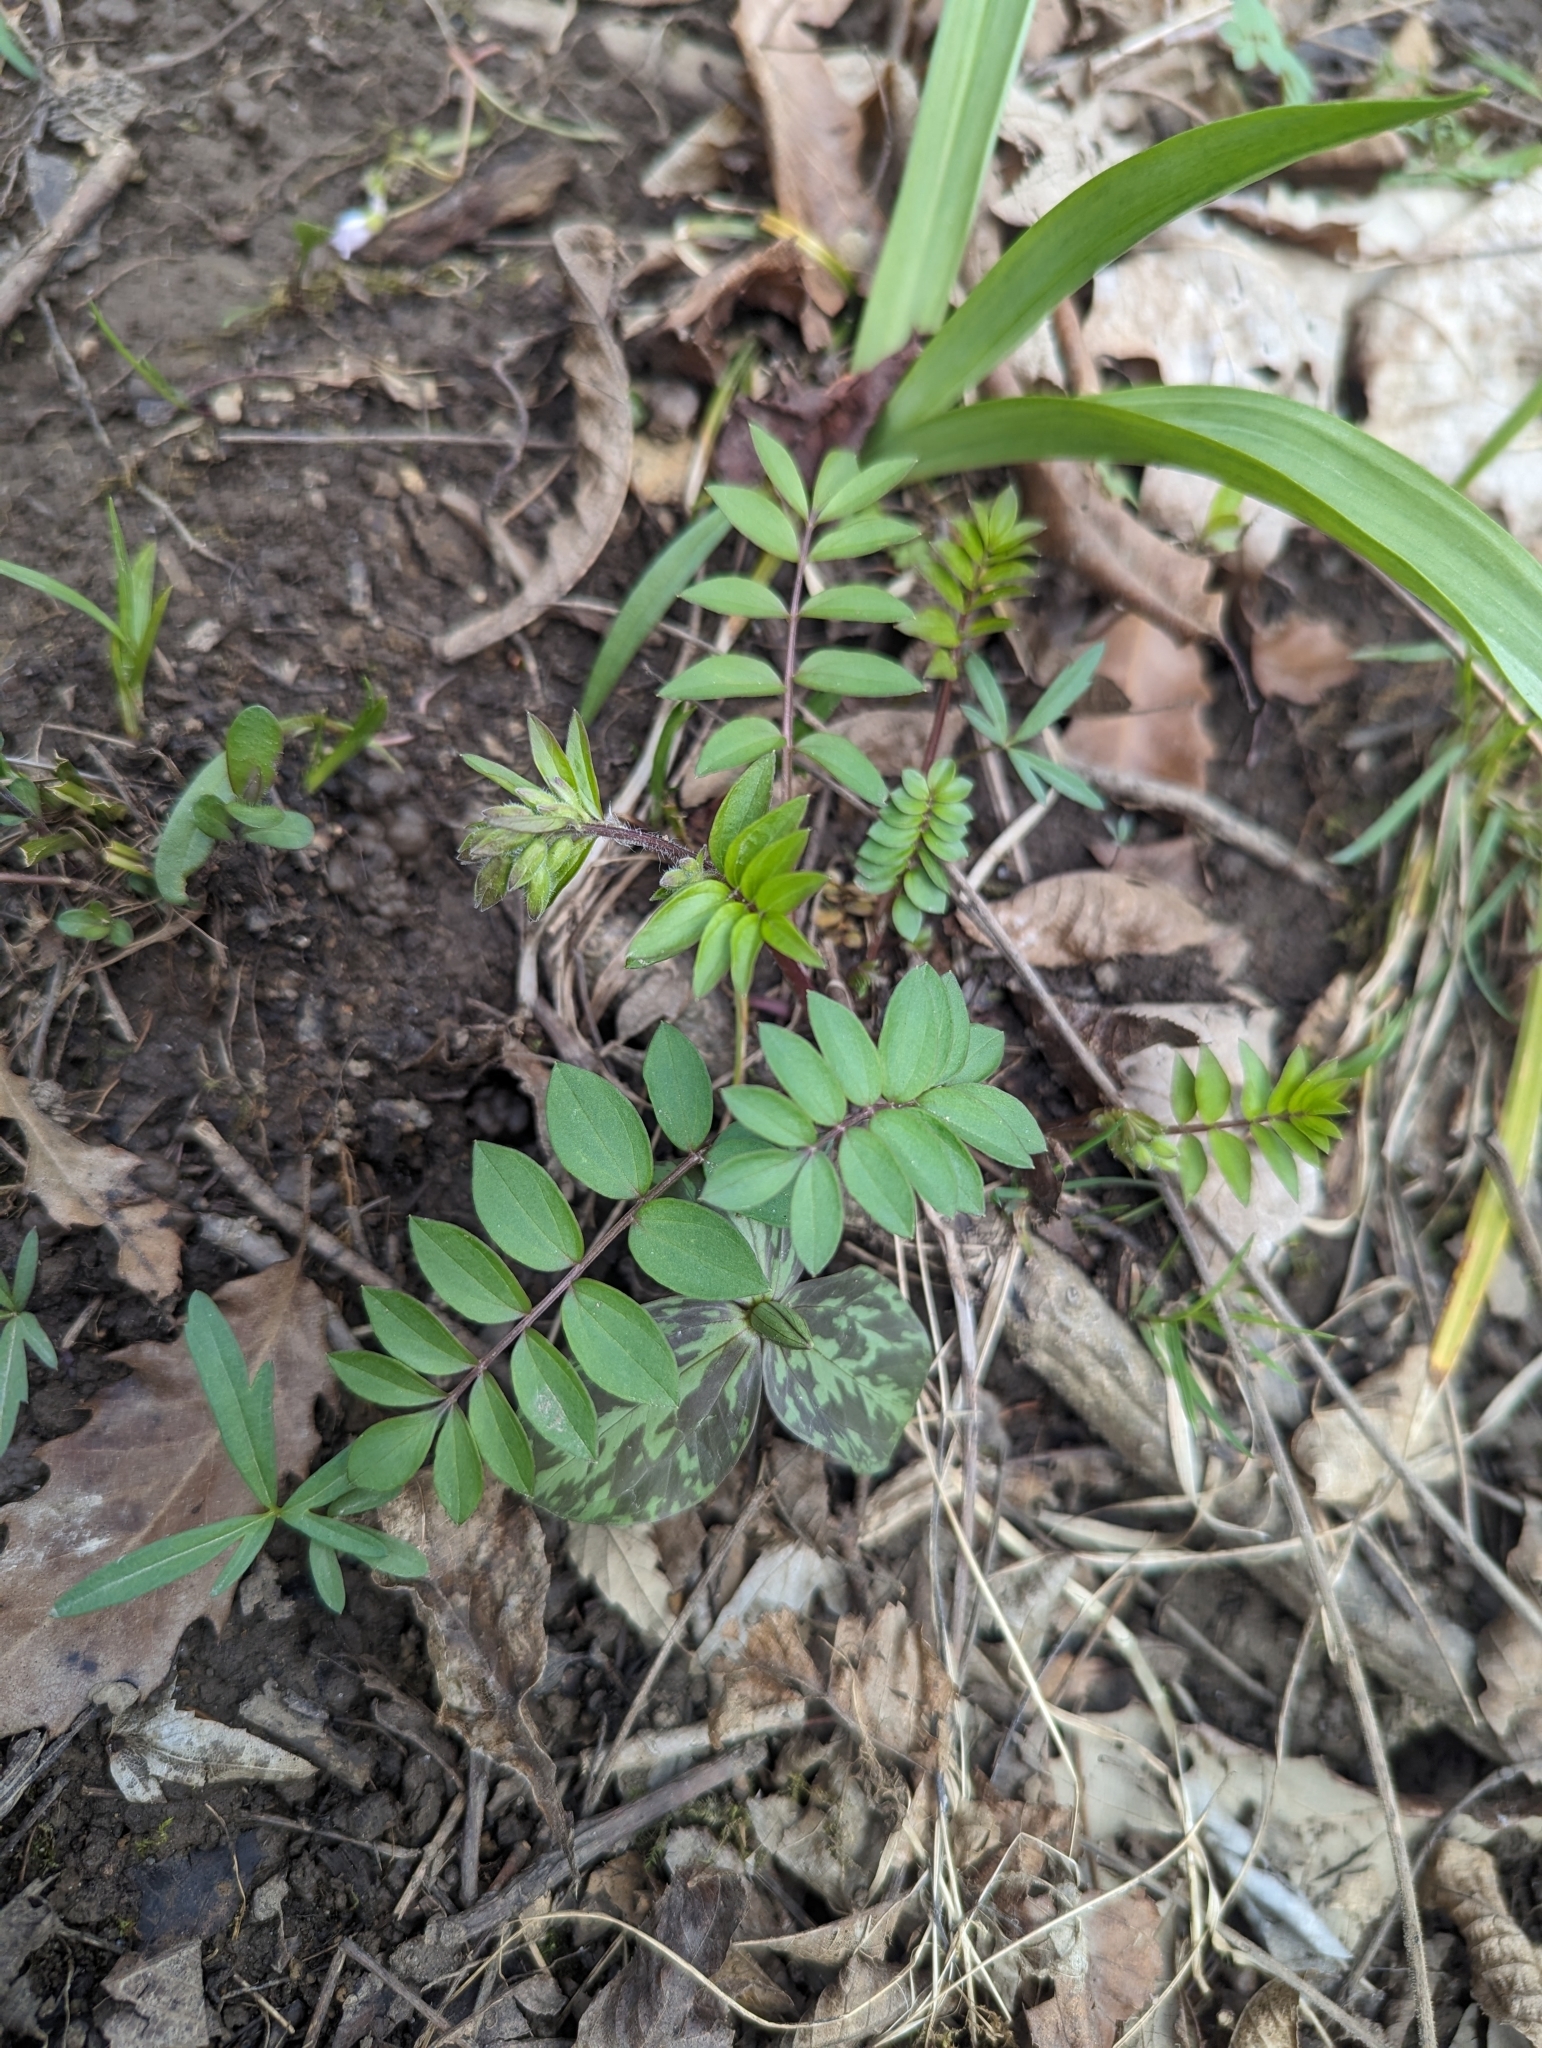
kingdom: Plantae
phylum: Tracheophyta
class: Magnoliopsida
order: Ericales
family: Polemoniaceae
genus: Polemonium
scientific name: Polemonium reptans
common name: Creeping jacob's-ladder
